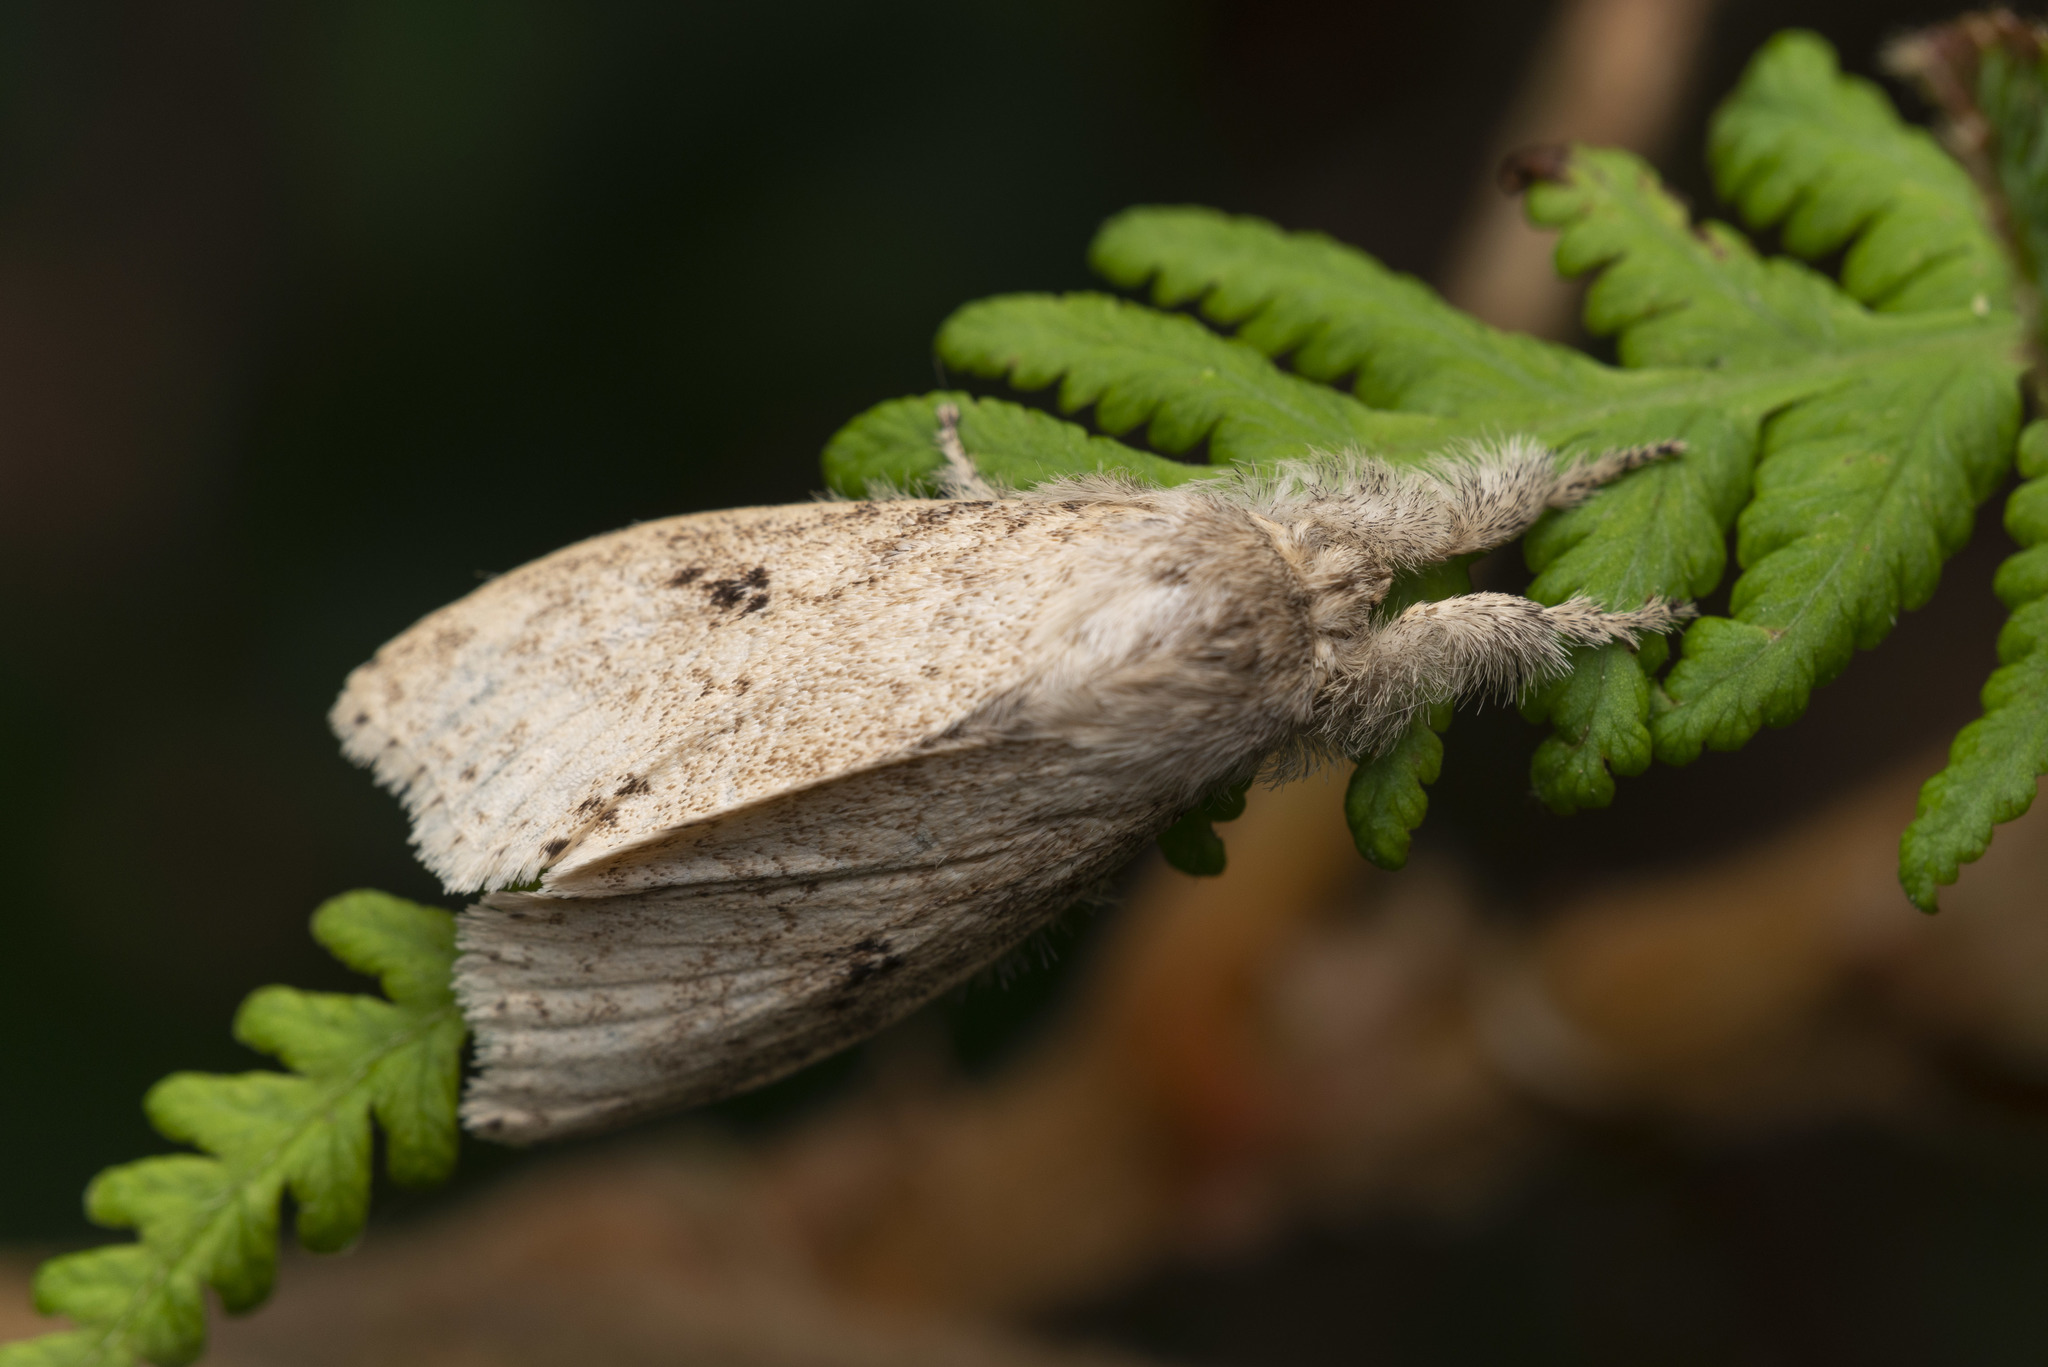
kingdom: Animalia
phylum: Arthropoda
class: Insecta
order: Lepidoptera
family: Erebidae
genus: Calliteara
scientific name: Calliteara angulata
